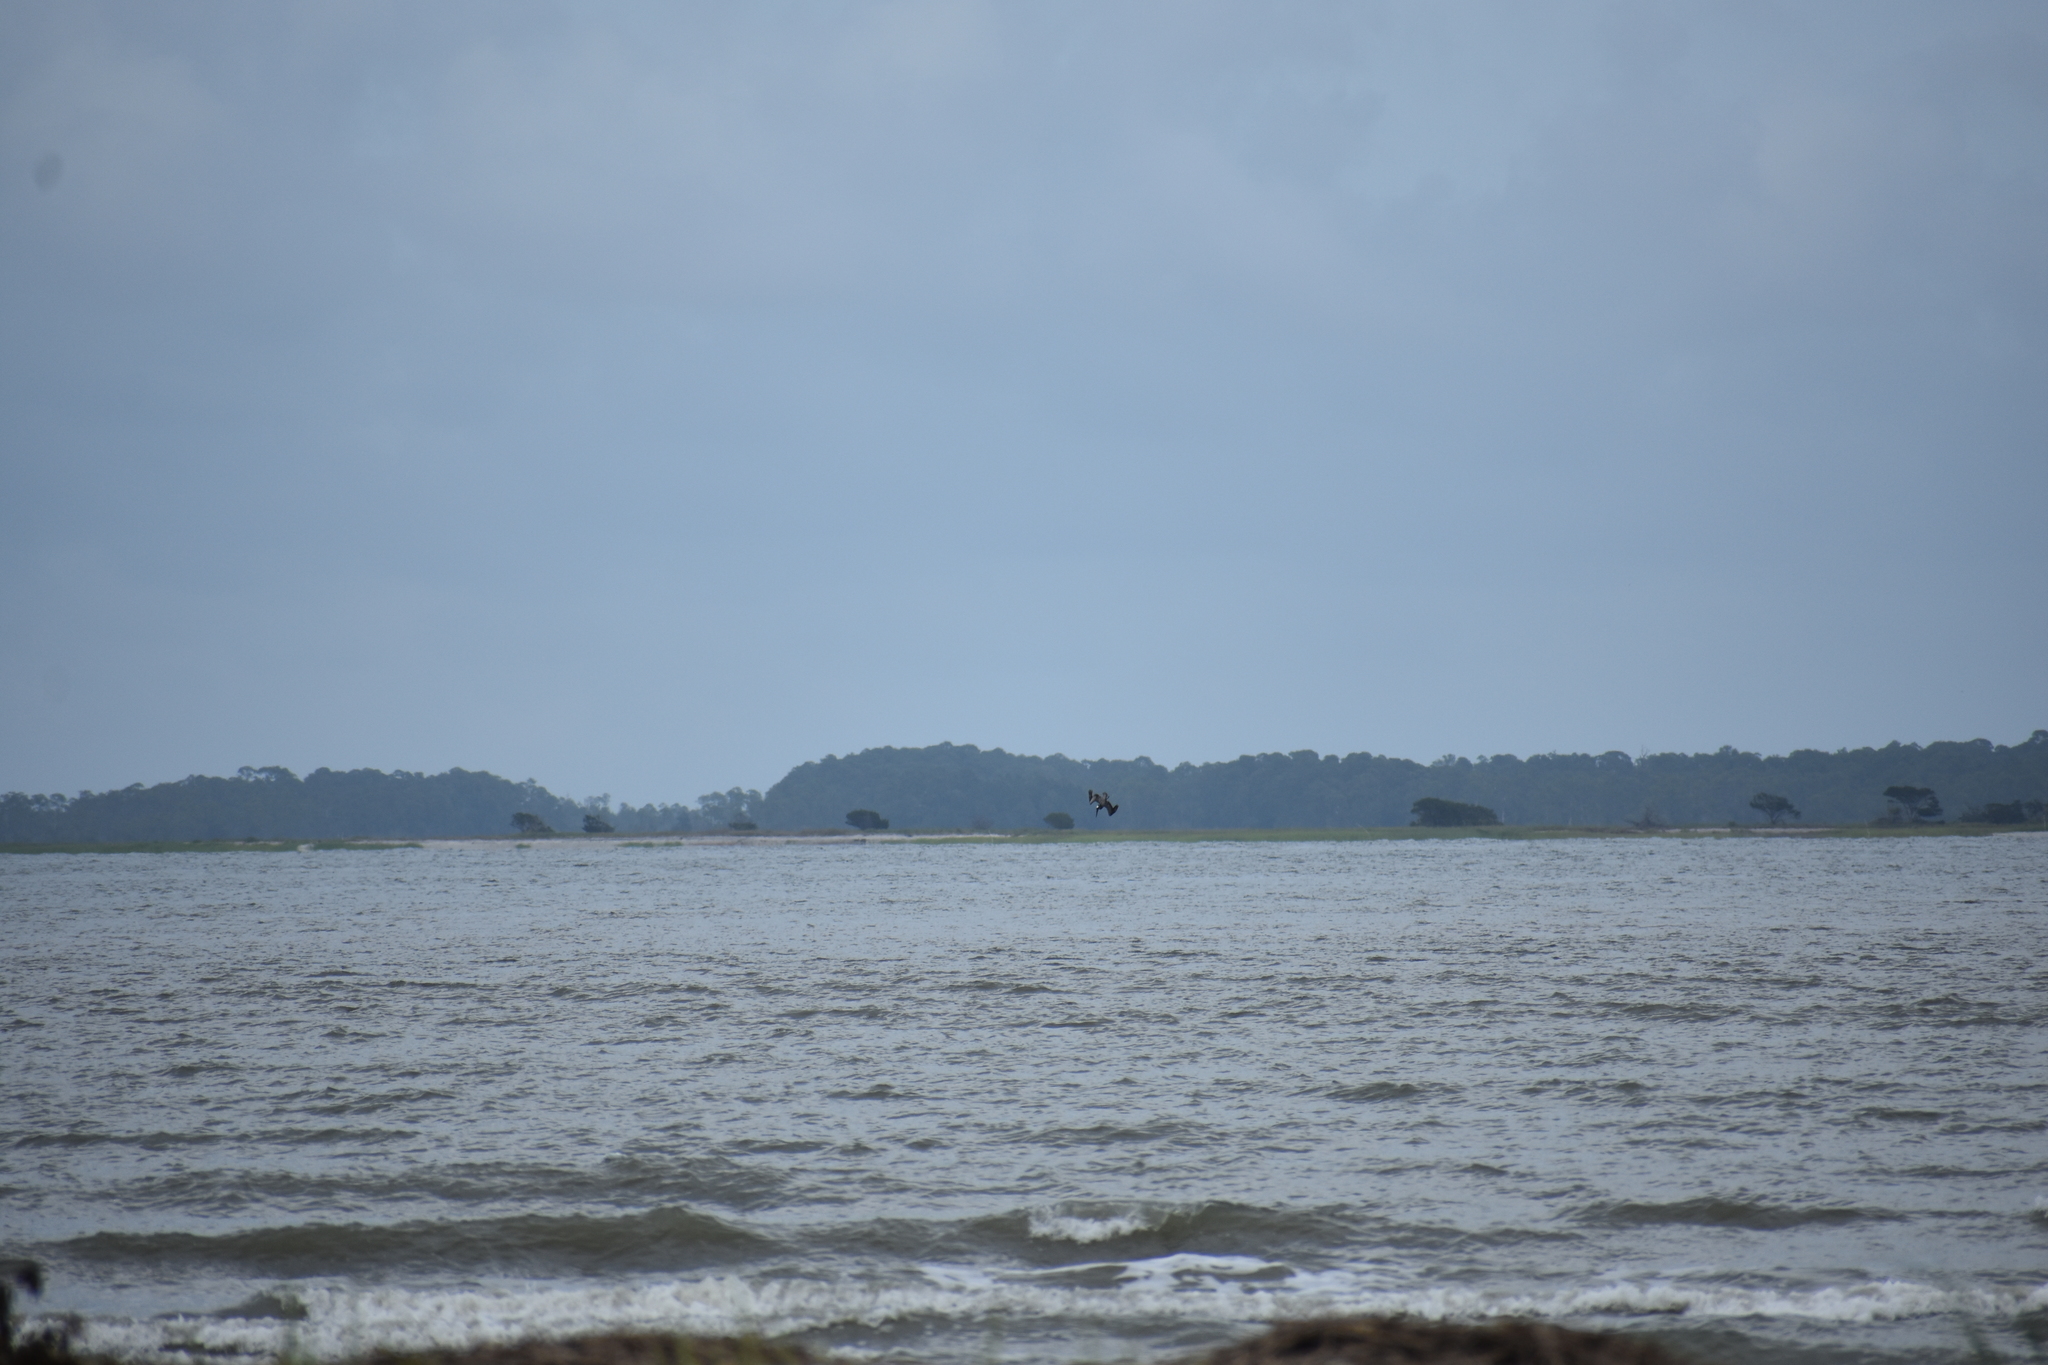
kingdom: Animalia
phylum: Chordata
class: Aves
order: Pelecaniformes
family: Pelecanidae
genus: Pelecanus
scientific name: Pelecanus occidentalis
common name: Brown pelican
